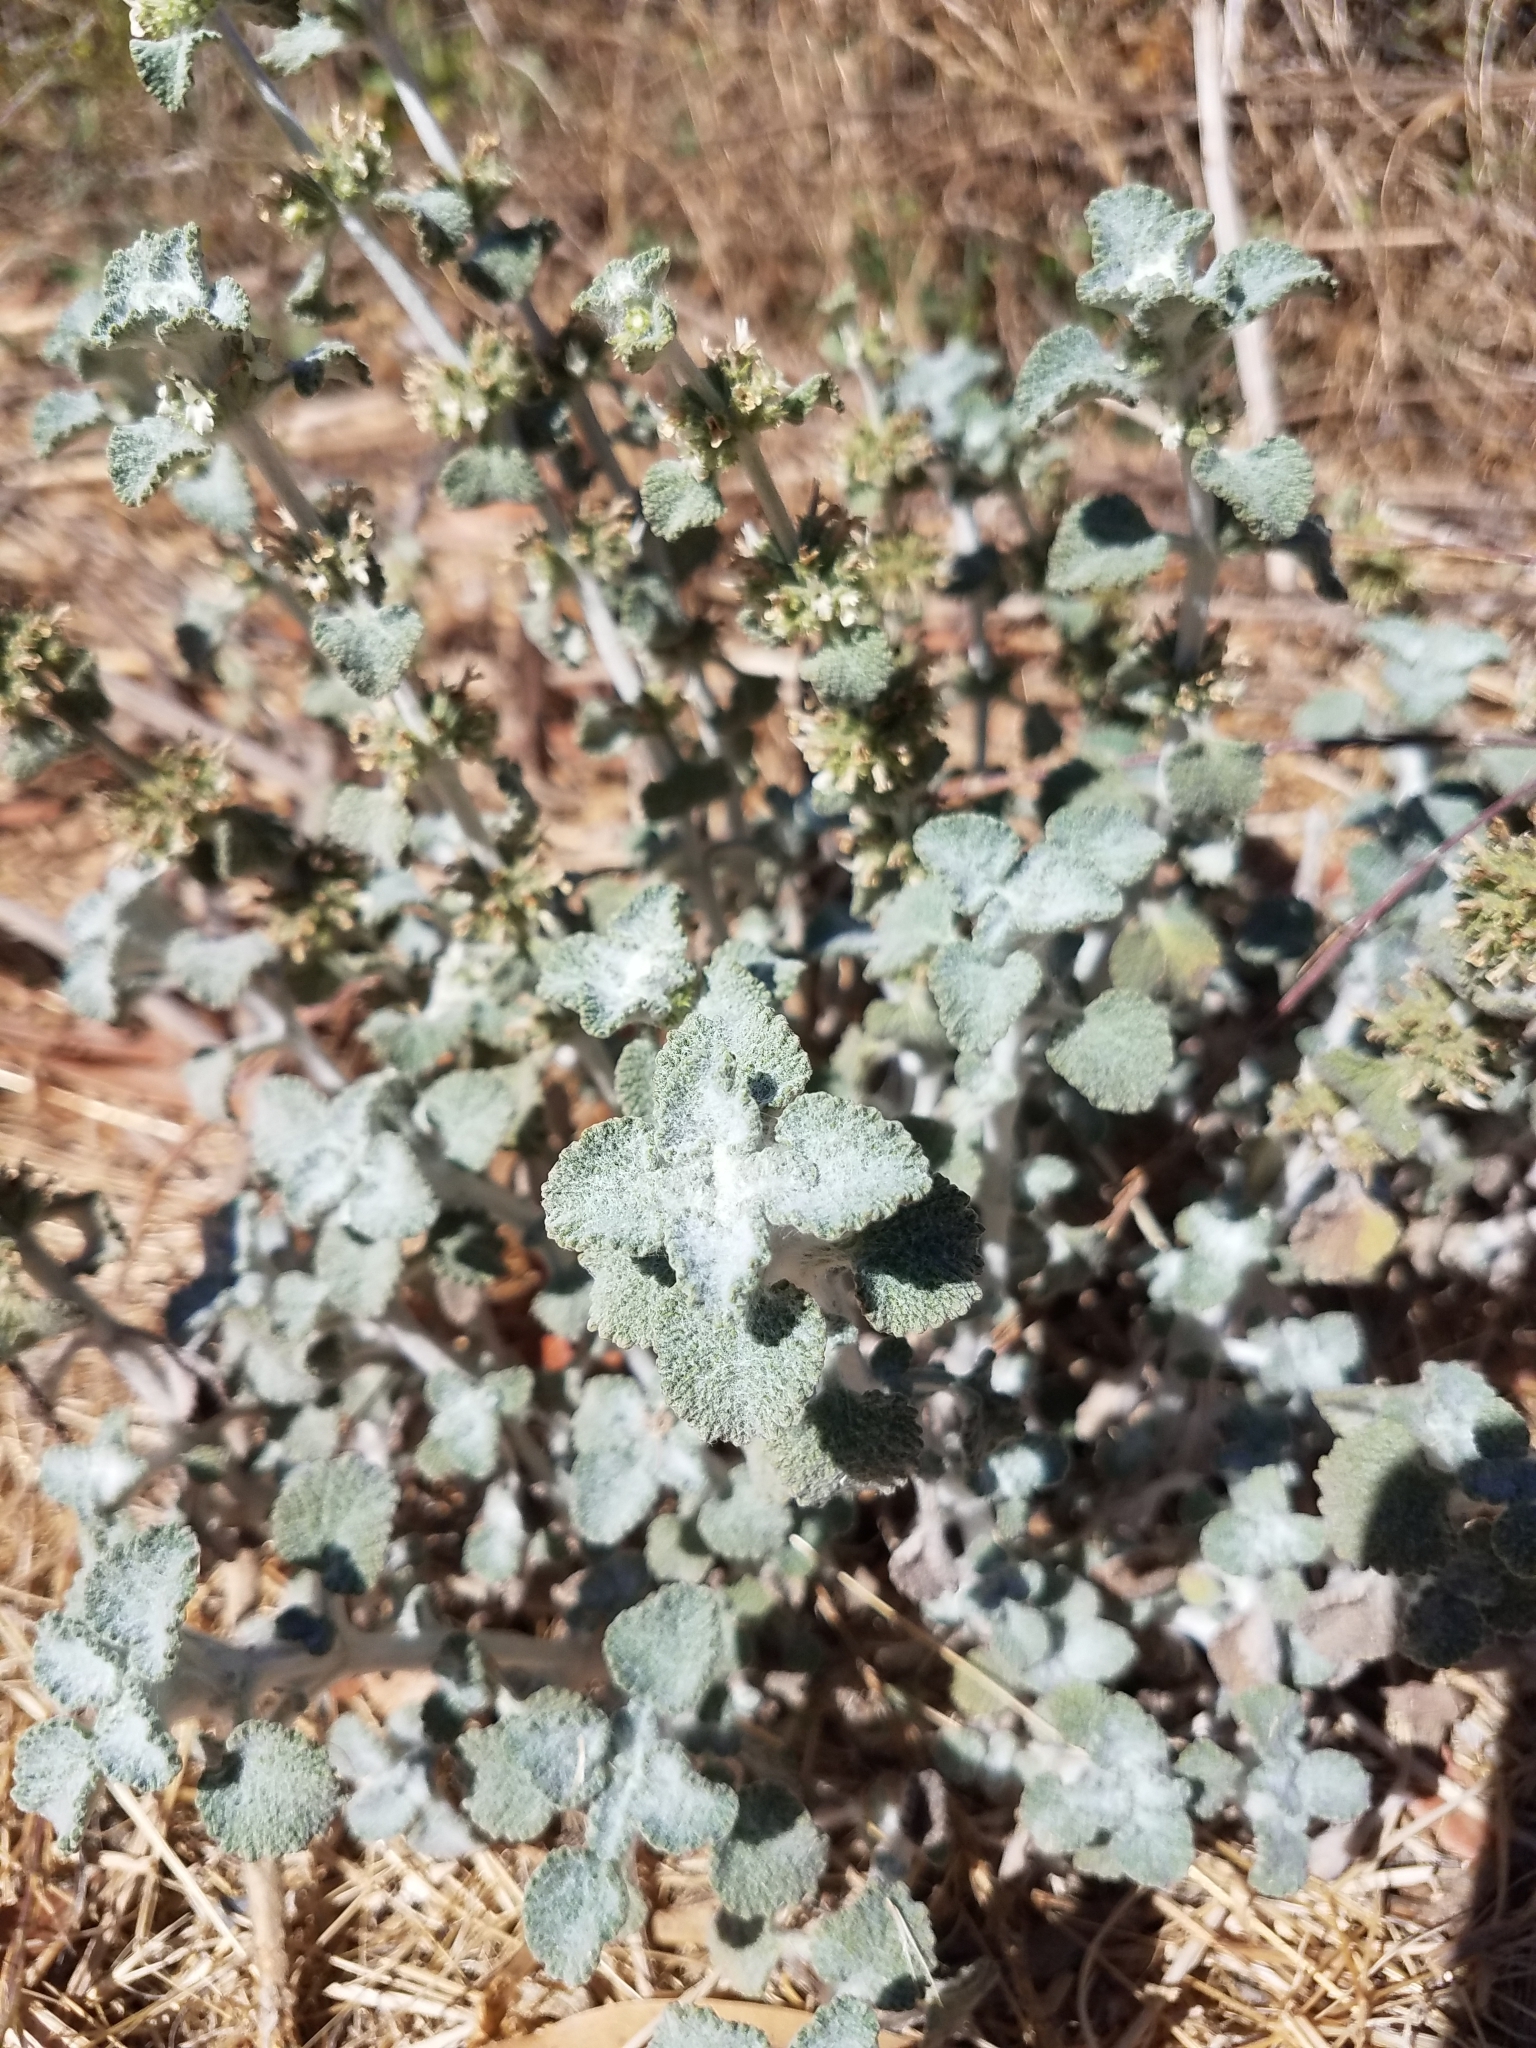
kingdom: Plantae
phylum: Tracheophyta
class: Magnoliopsida
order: Lamiales
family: Lamiaceae
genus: Marrubium
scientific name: Marrubium vulgare
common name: Horehound
